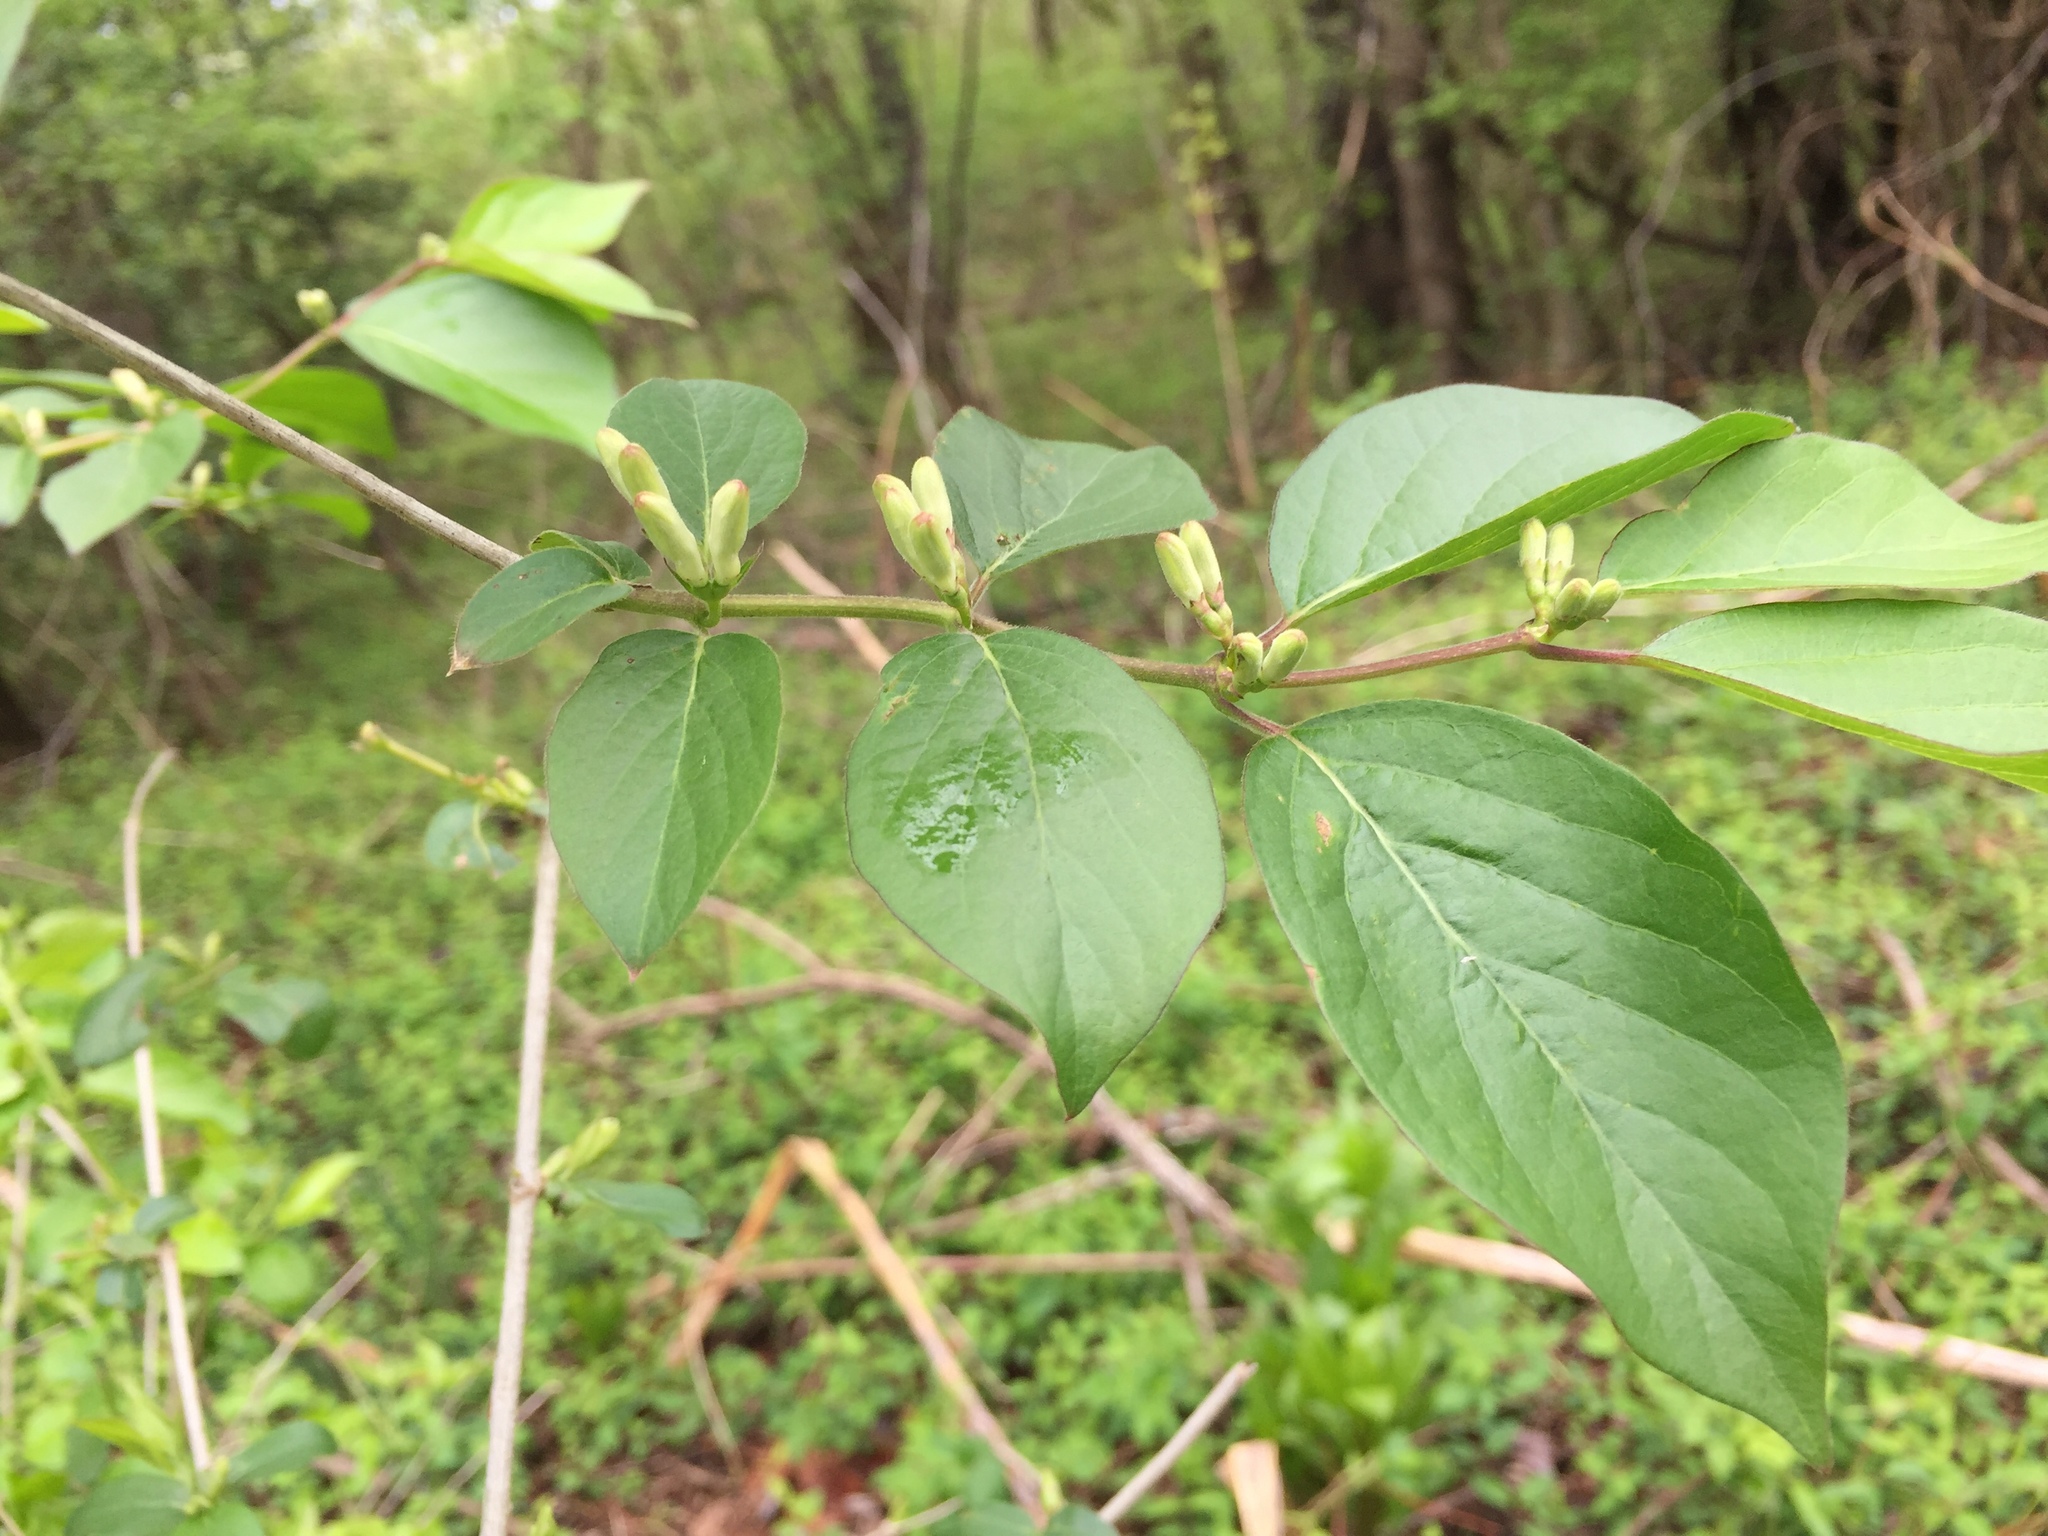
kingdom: Plantae
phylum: Tracheophyta
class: Magnoliopsida
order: Dipsacales
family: Caprifoliaceae
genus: Lonicera
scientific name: Lonicera maackii
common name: Amur honeysuckle
